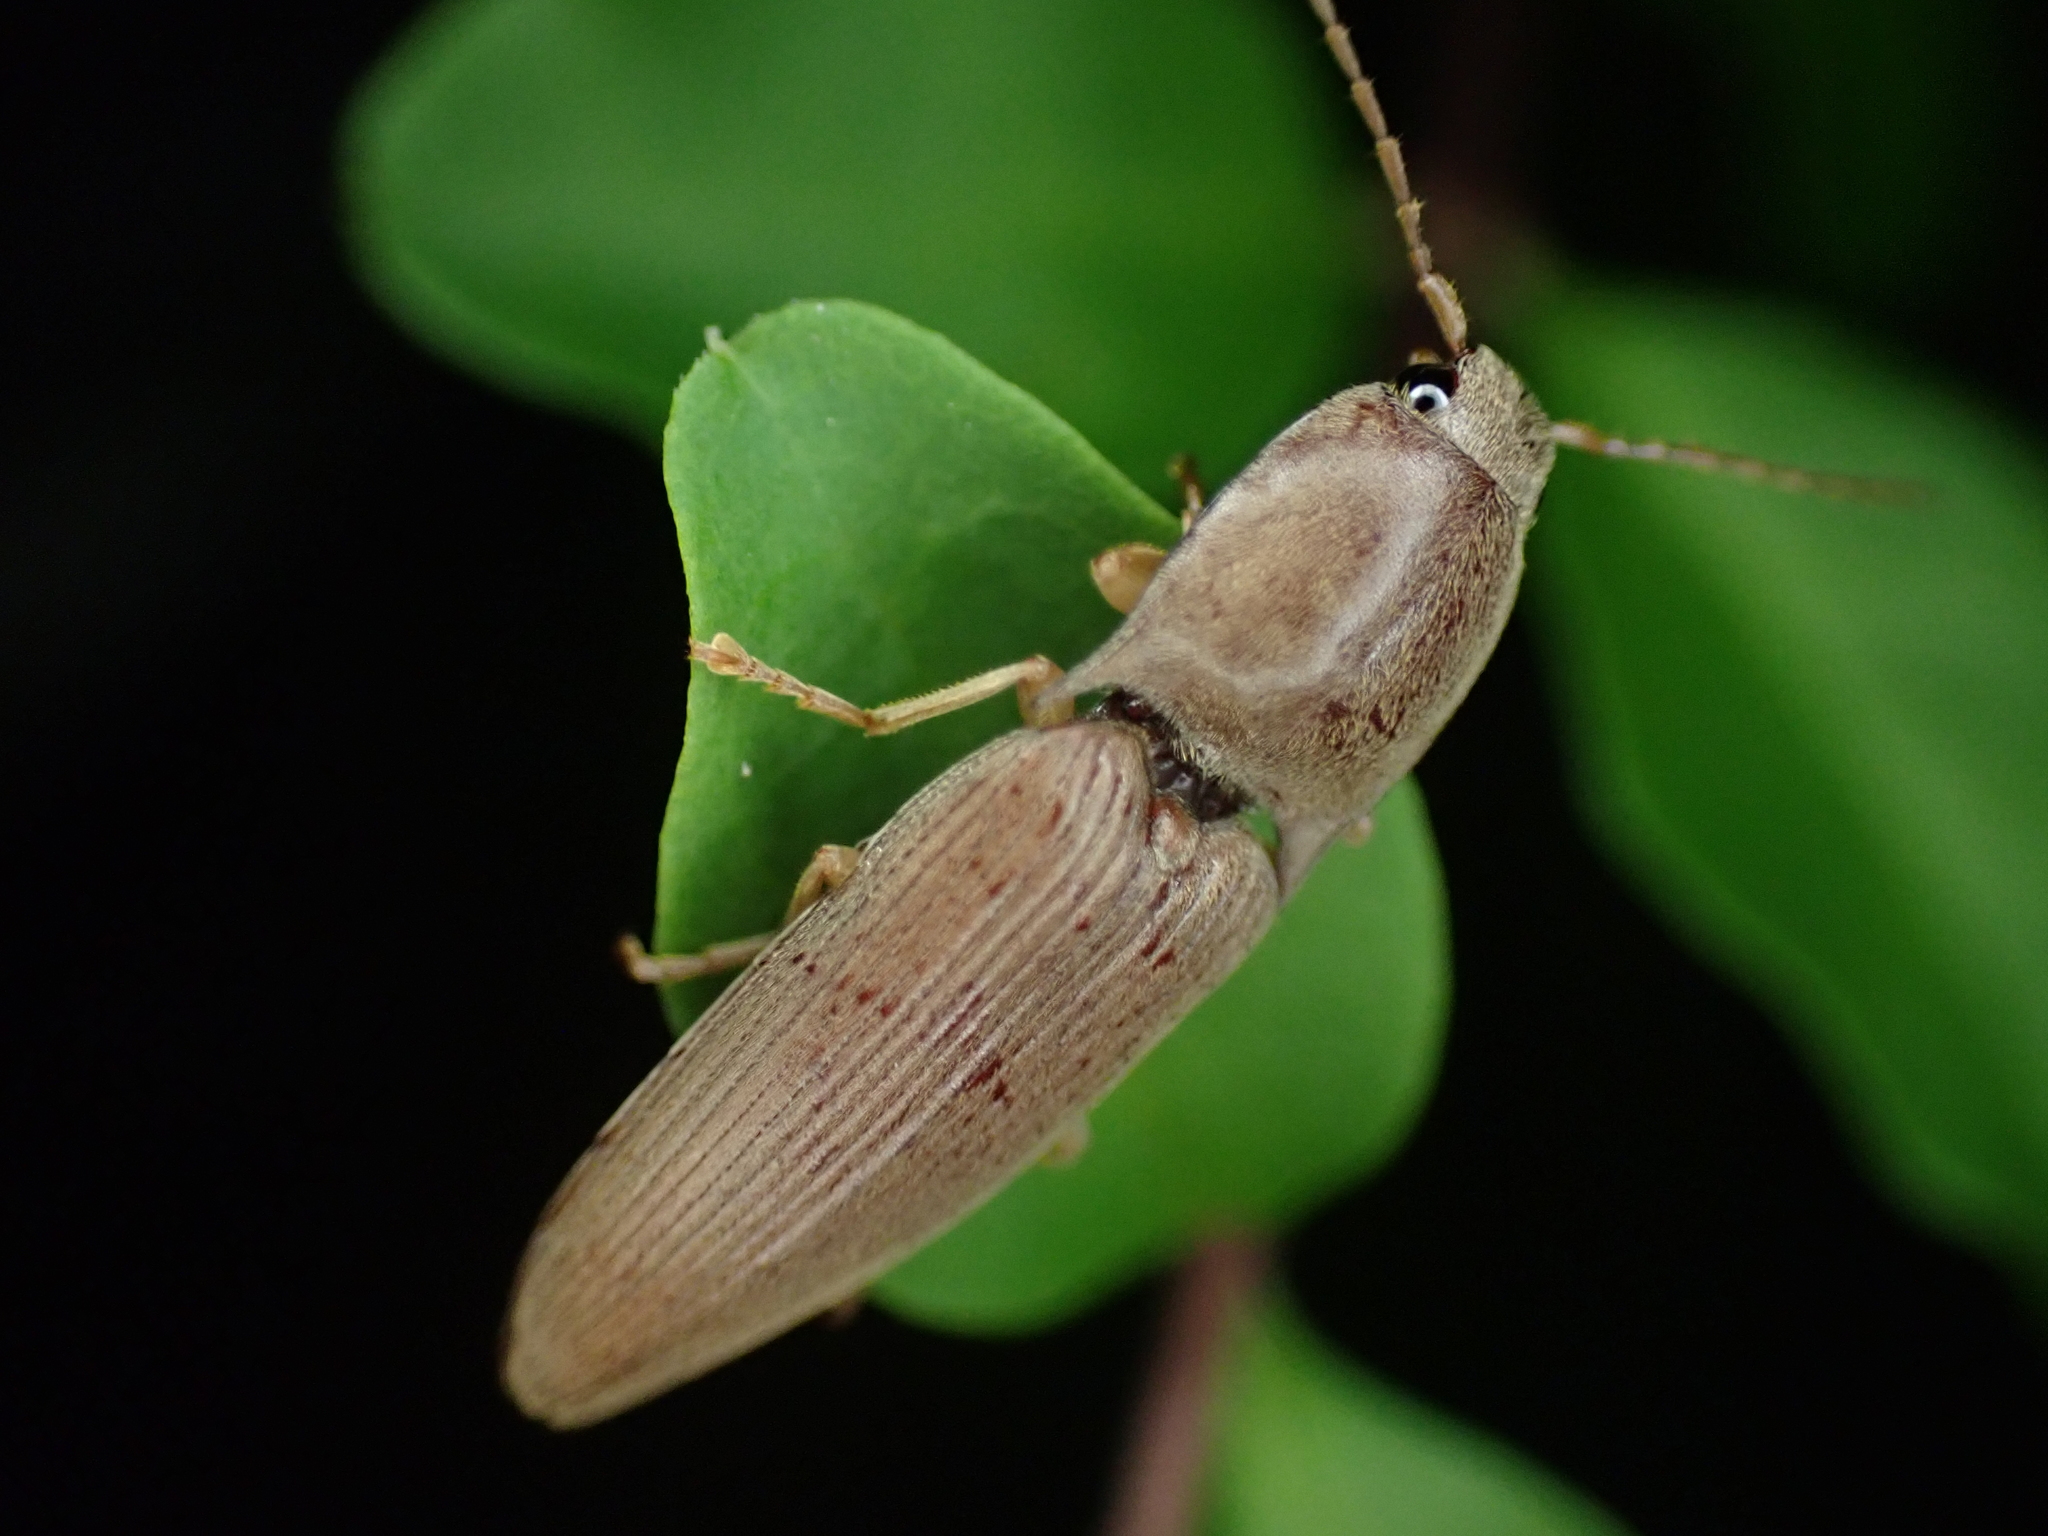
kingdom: Animalia
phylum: Arthropoda
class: Insecta
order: Coleoptera
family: Elateridae
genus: Monocrepidius
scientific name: Monocrepidius lividus
